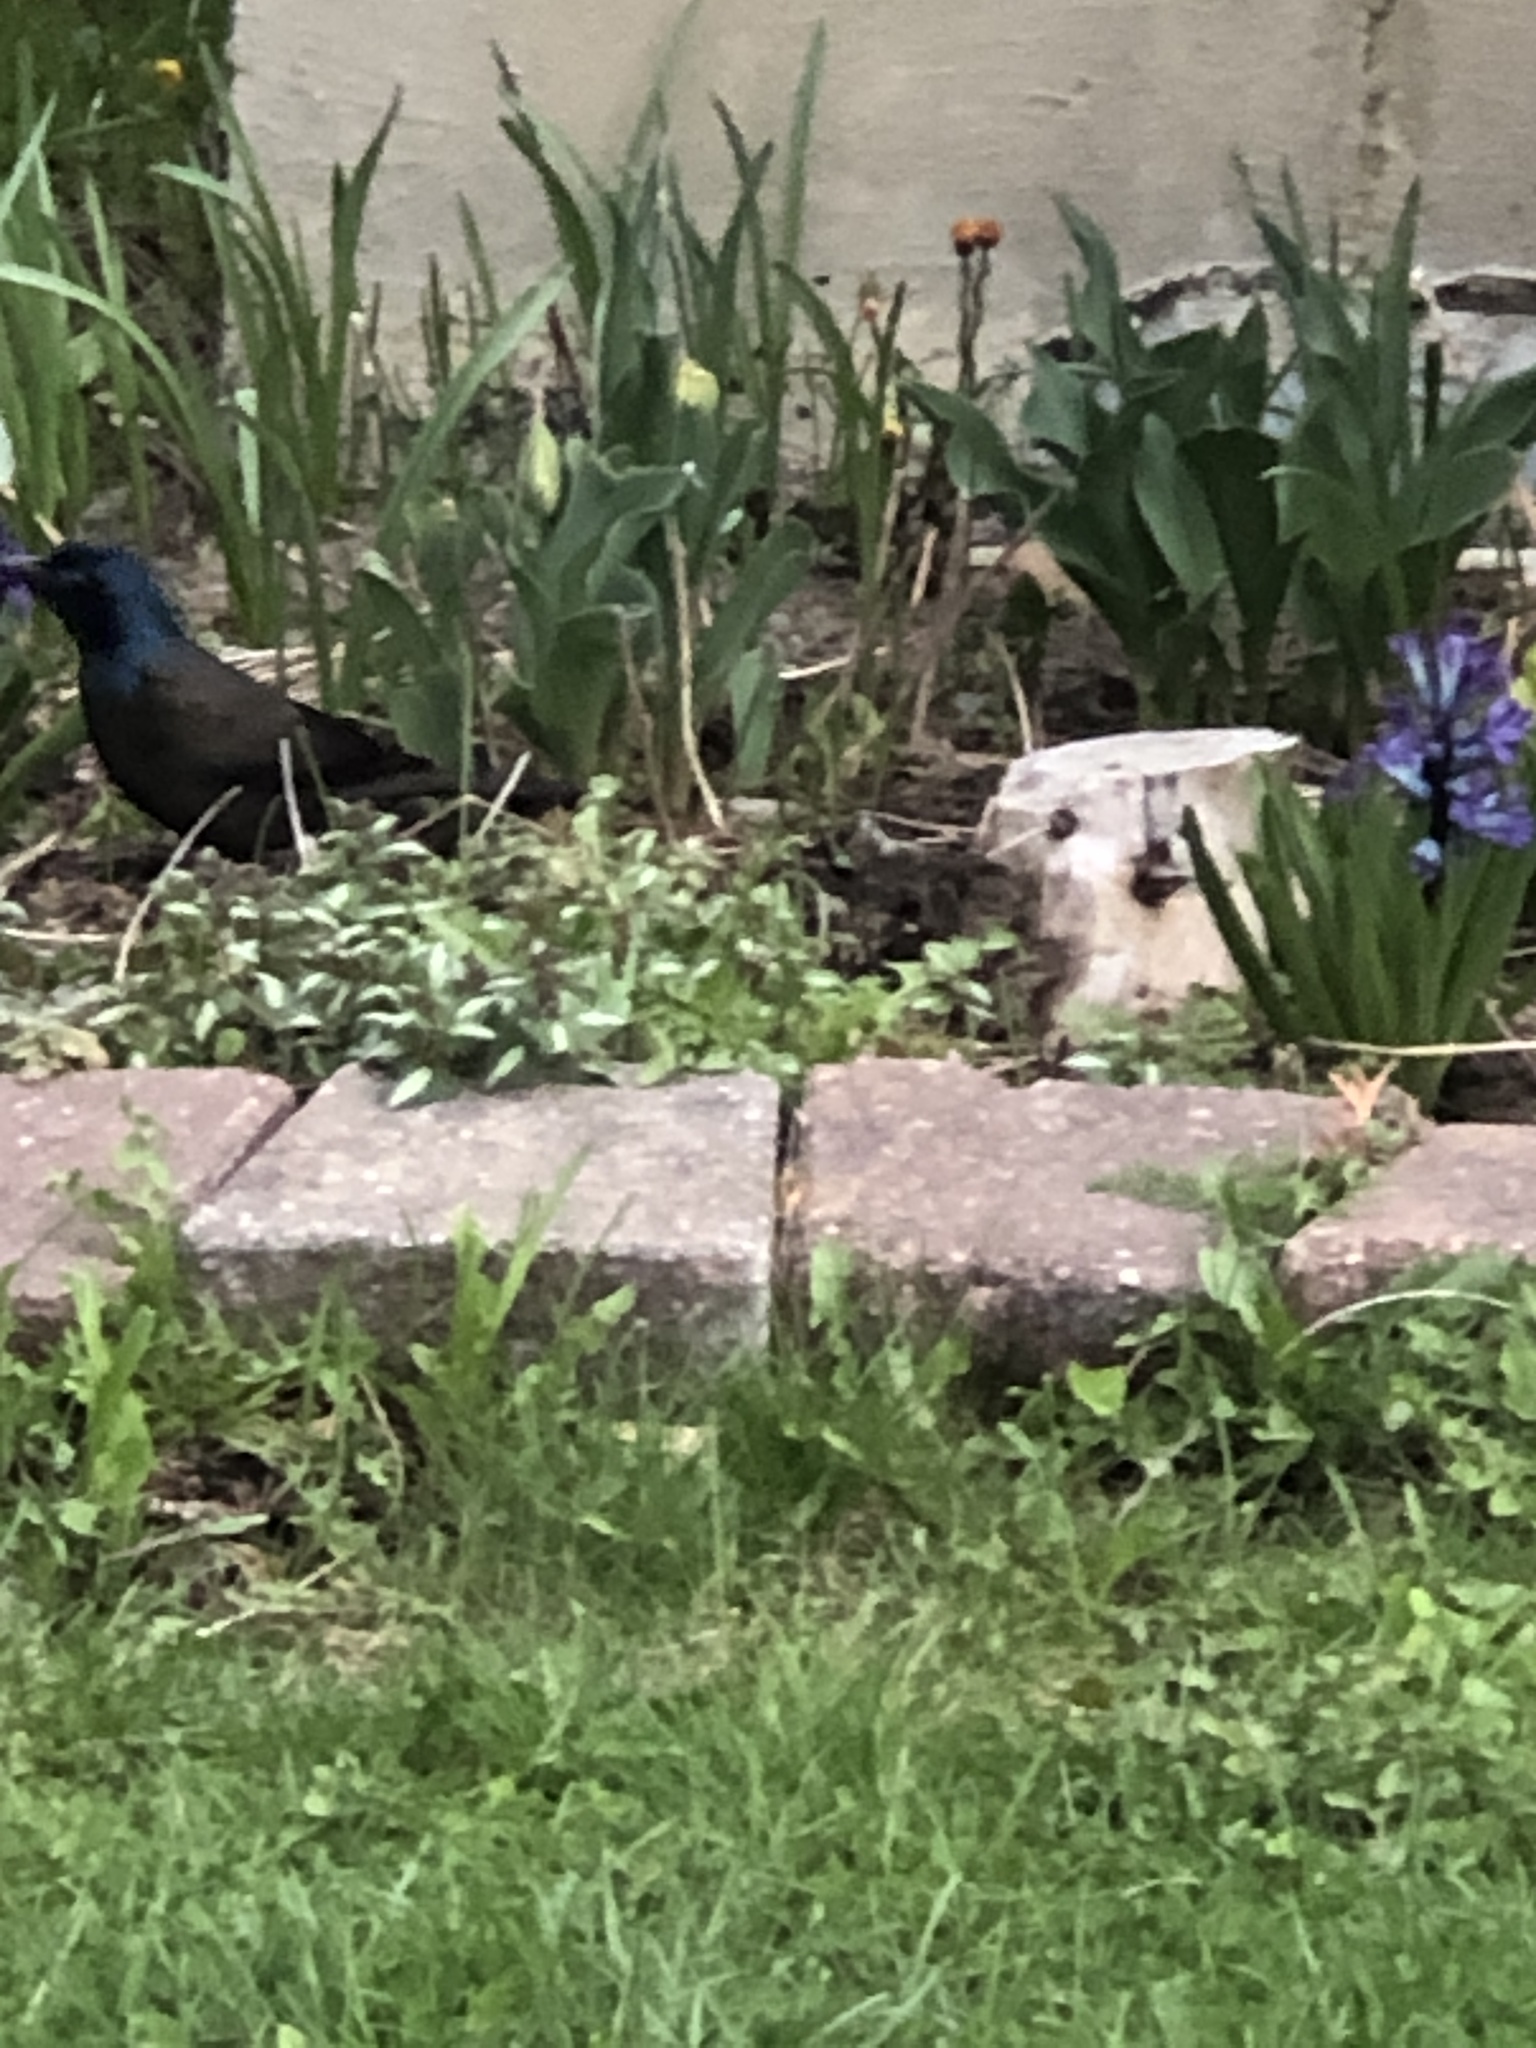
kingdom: Animalia
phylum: Chordata
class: Aves
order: Passeriformes
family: Icteridae
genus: Quiscalus
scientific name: Quiscalus quiscula
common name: Common grackle
